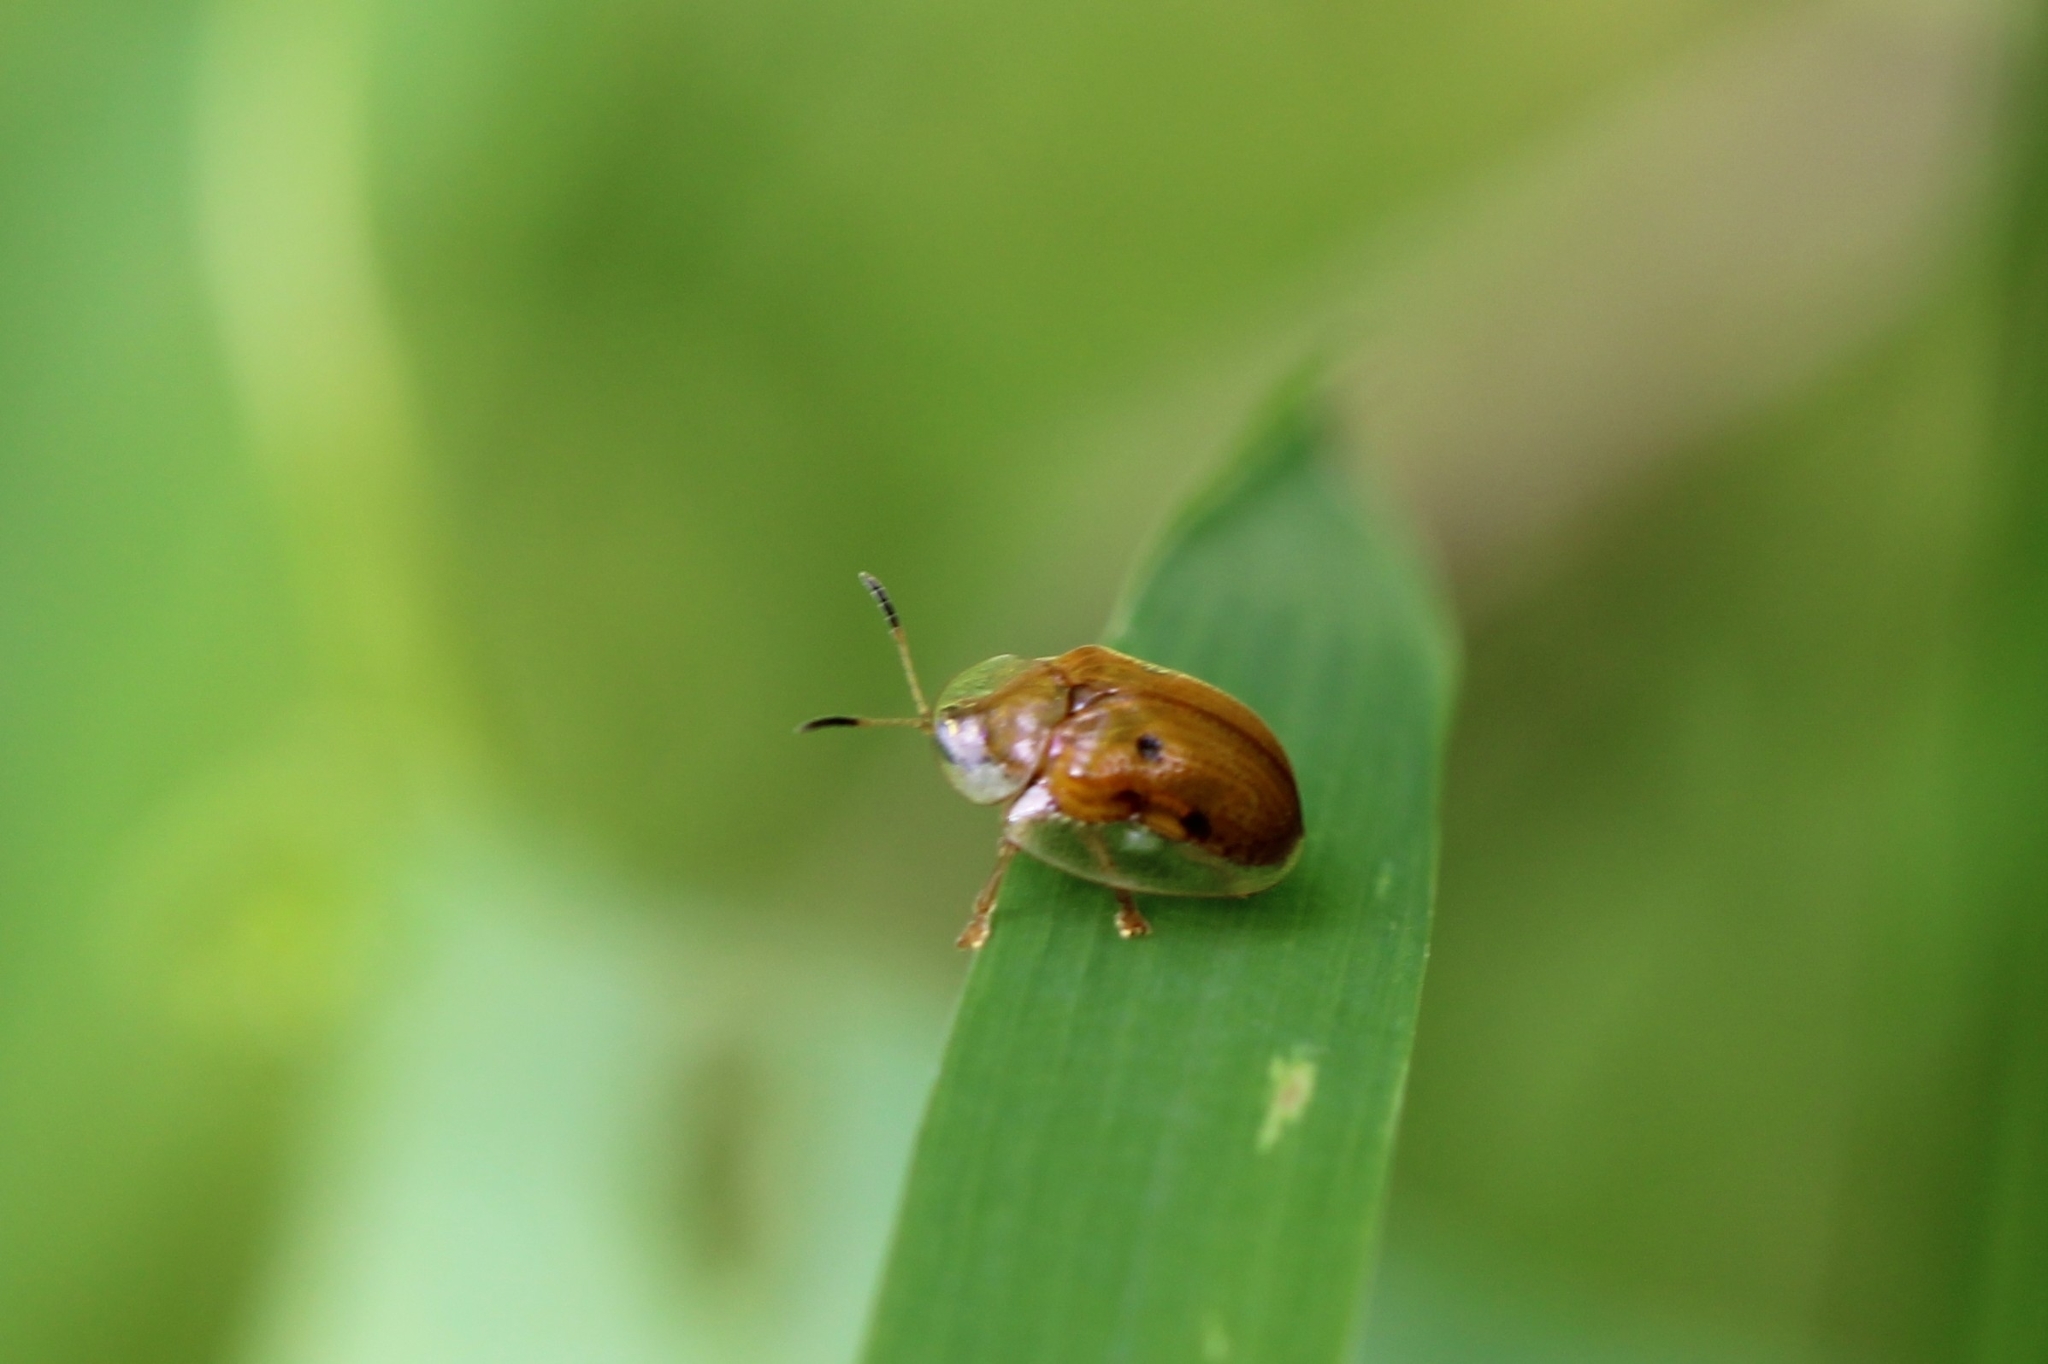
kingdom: Animalia
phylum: Arthropoda
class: Insecta
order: Coleoptera
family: Chrysomelidae
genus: Charidotella
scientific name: Charidotella sexpunctata
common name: Golden tortoise beetle
